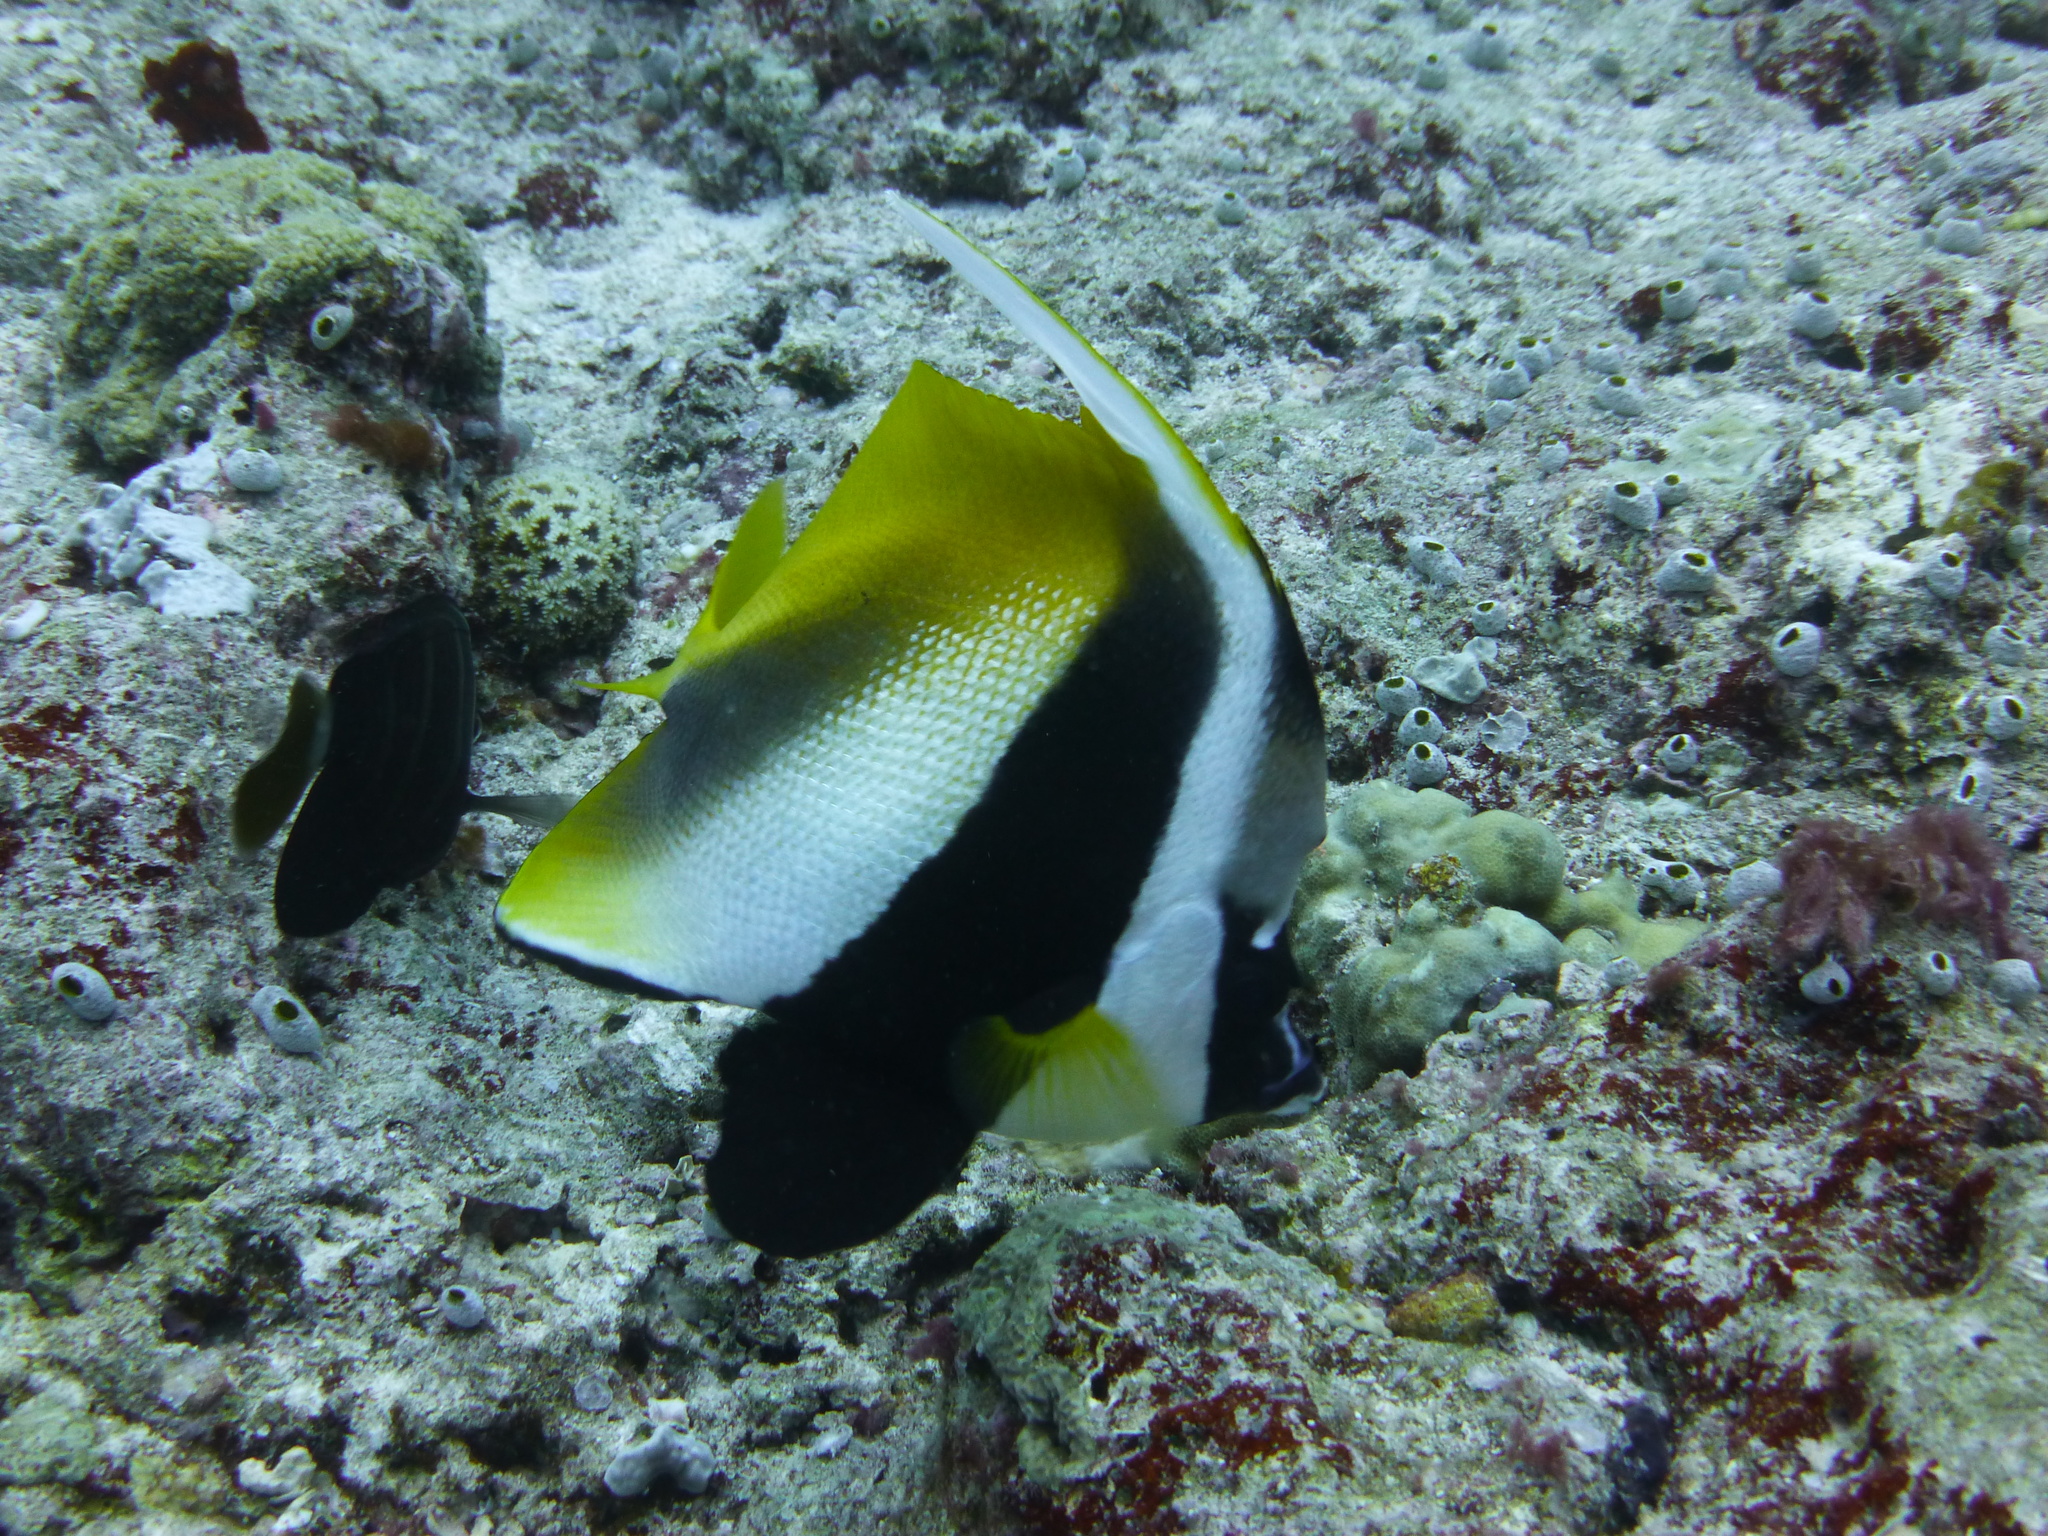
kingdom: Animalia
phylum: Chordata
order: Perciformes
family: Chaetodontidae
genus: Heniochus
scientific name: Heniochus monoceros
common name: Masked bannerfish
